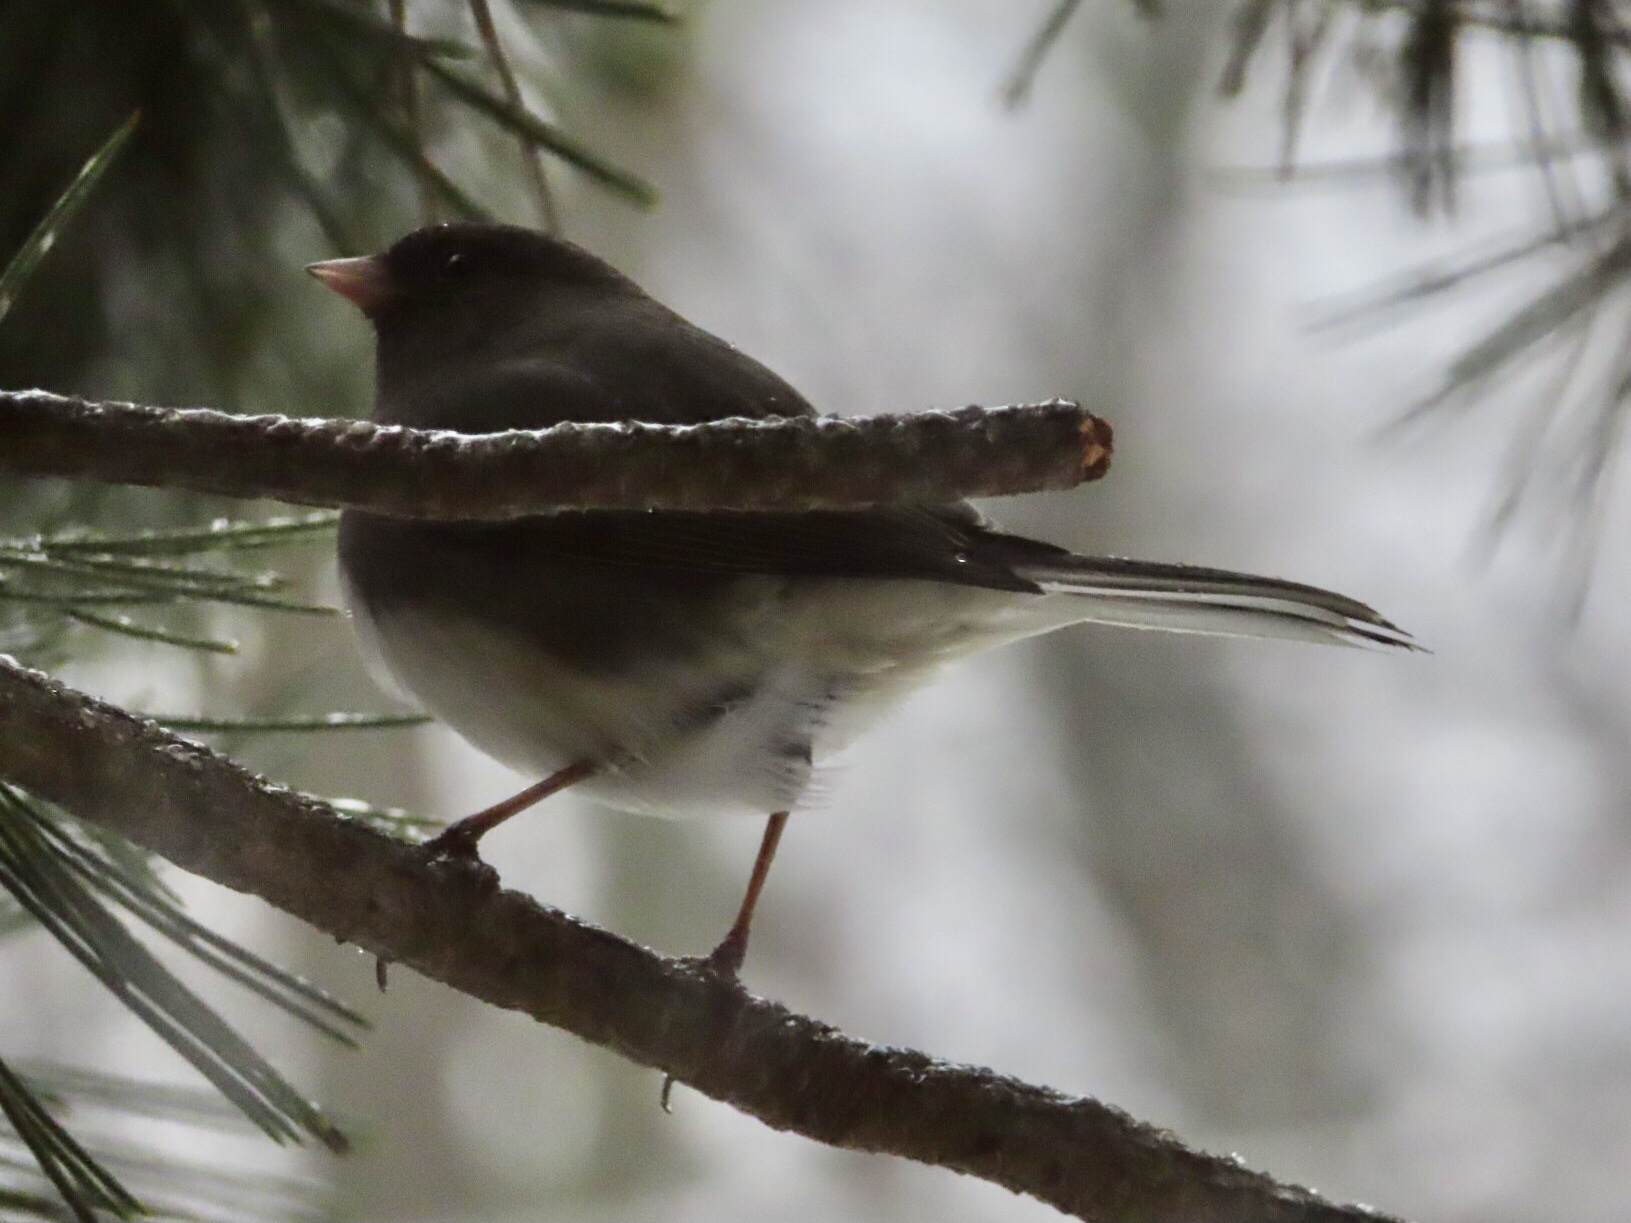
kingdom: Animalia
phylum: Chordata
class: Aves
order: Passeriformes
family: Passerellidae
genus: Junco
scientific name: Junco hyemalis
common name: Dark-eyed junco
